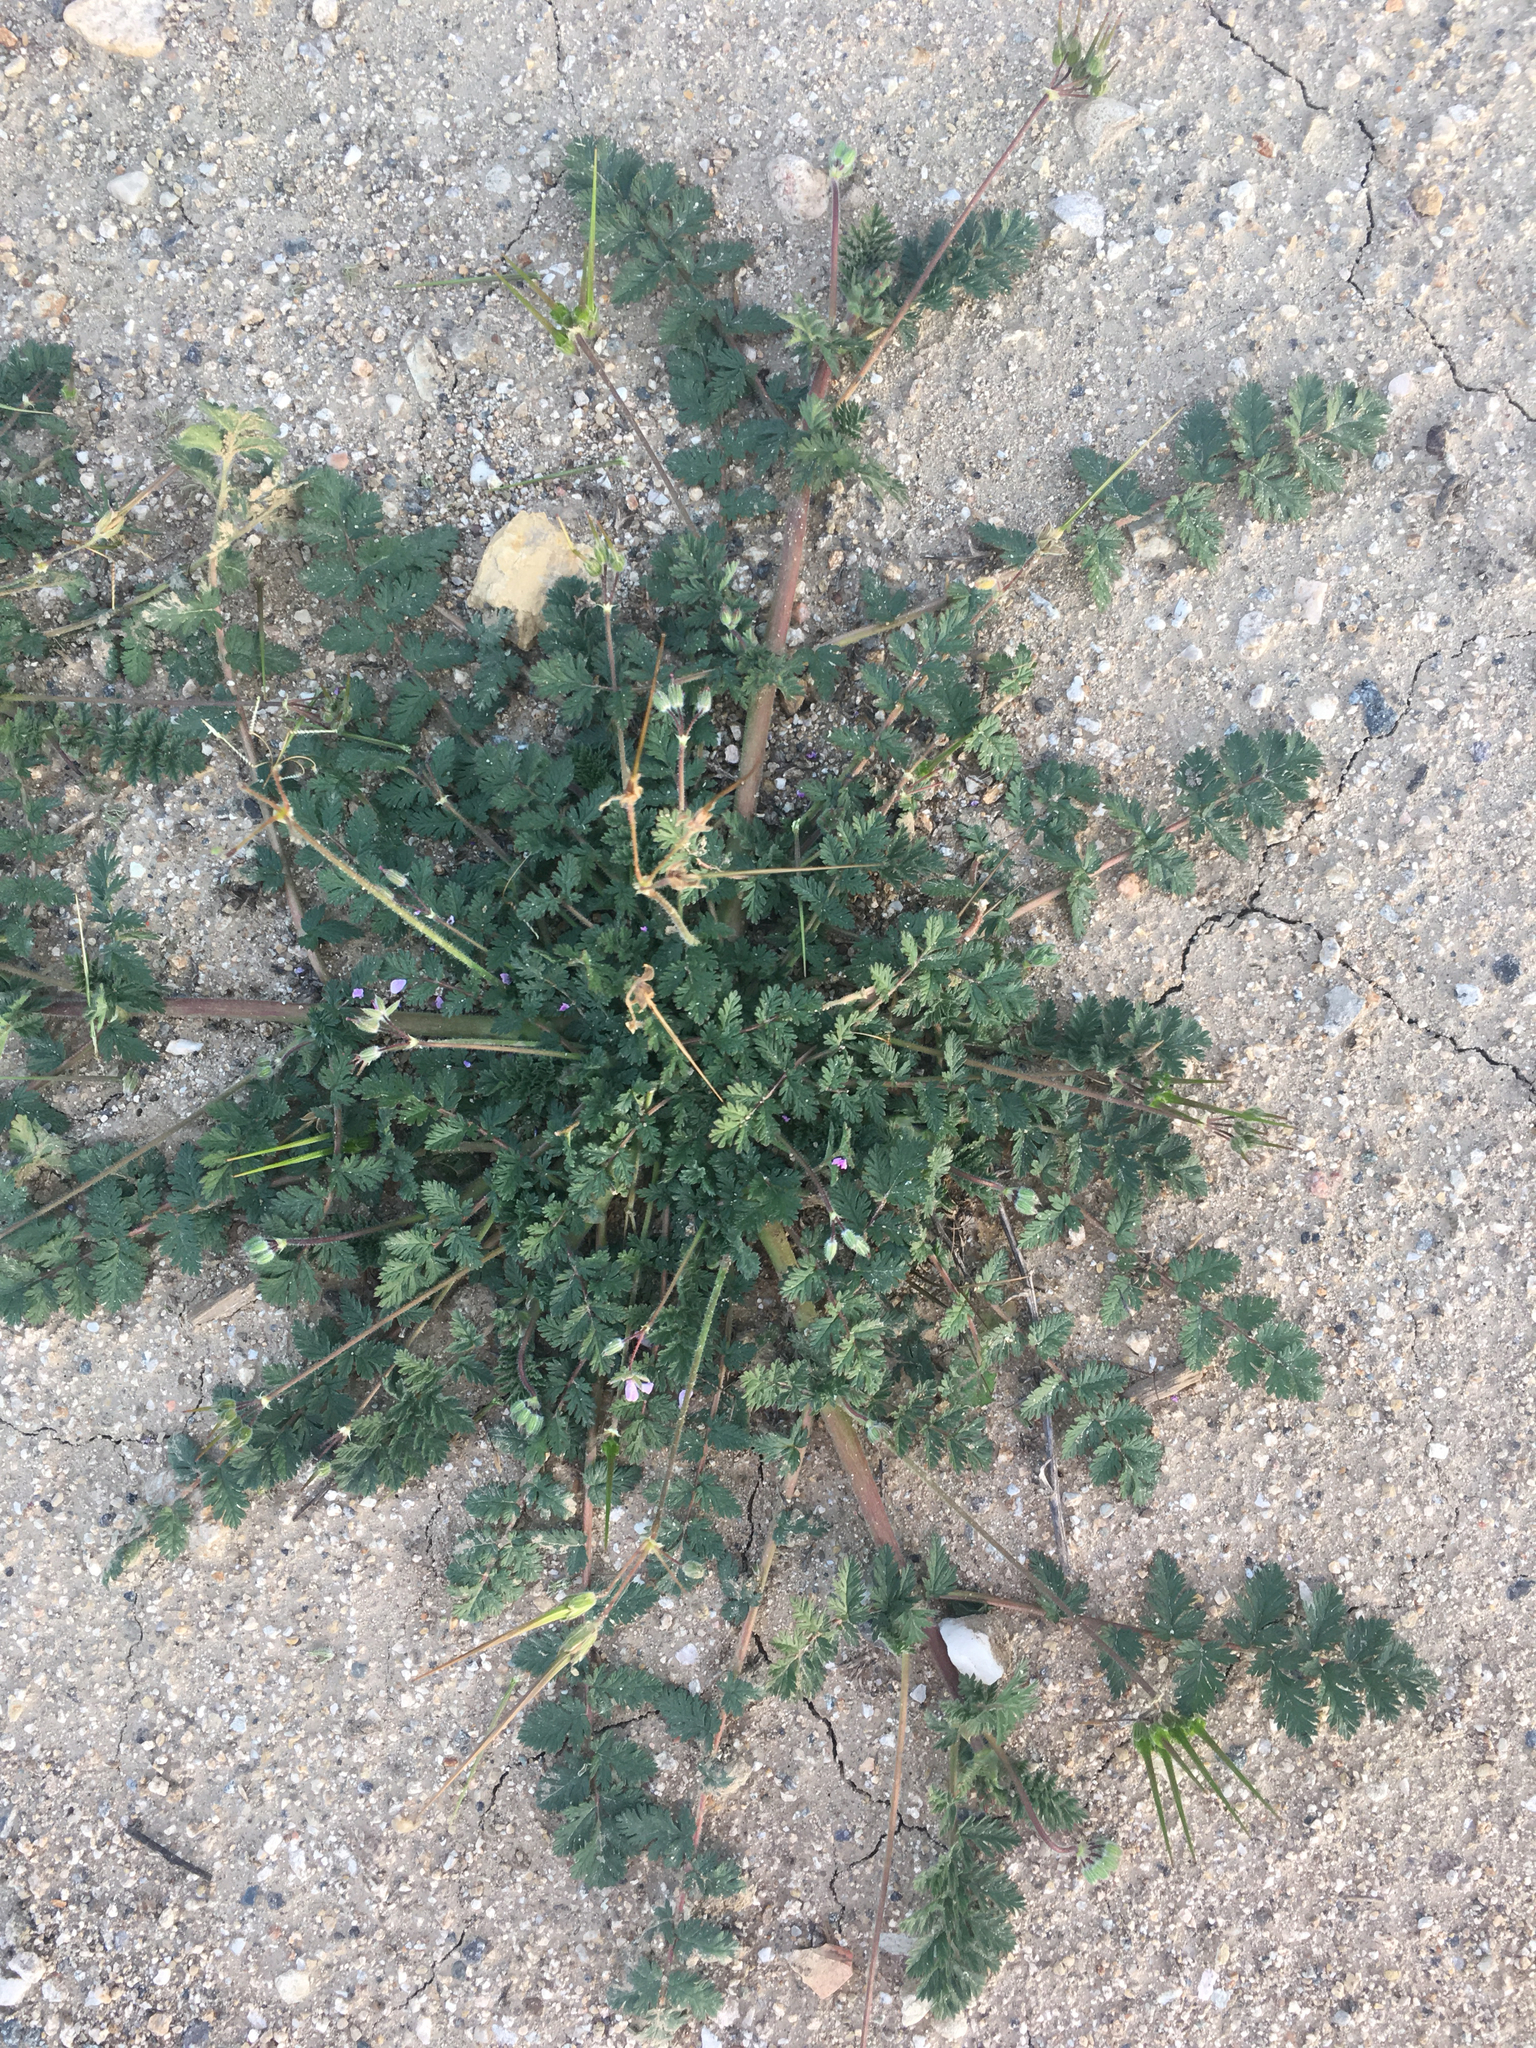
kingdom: Plantae
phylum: Tracheophyta
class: Magnoliopsida
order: Geraniales
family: Geraniaceae
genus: Erodium
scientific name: Erodium cicutarium
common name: Common stork's-bill
